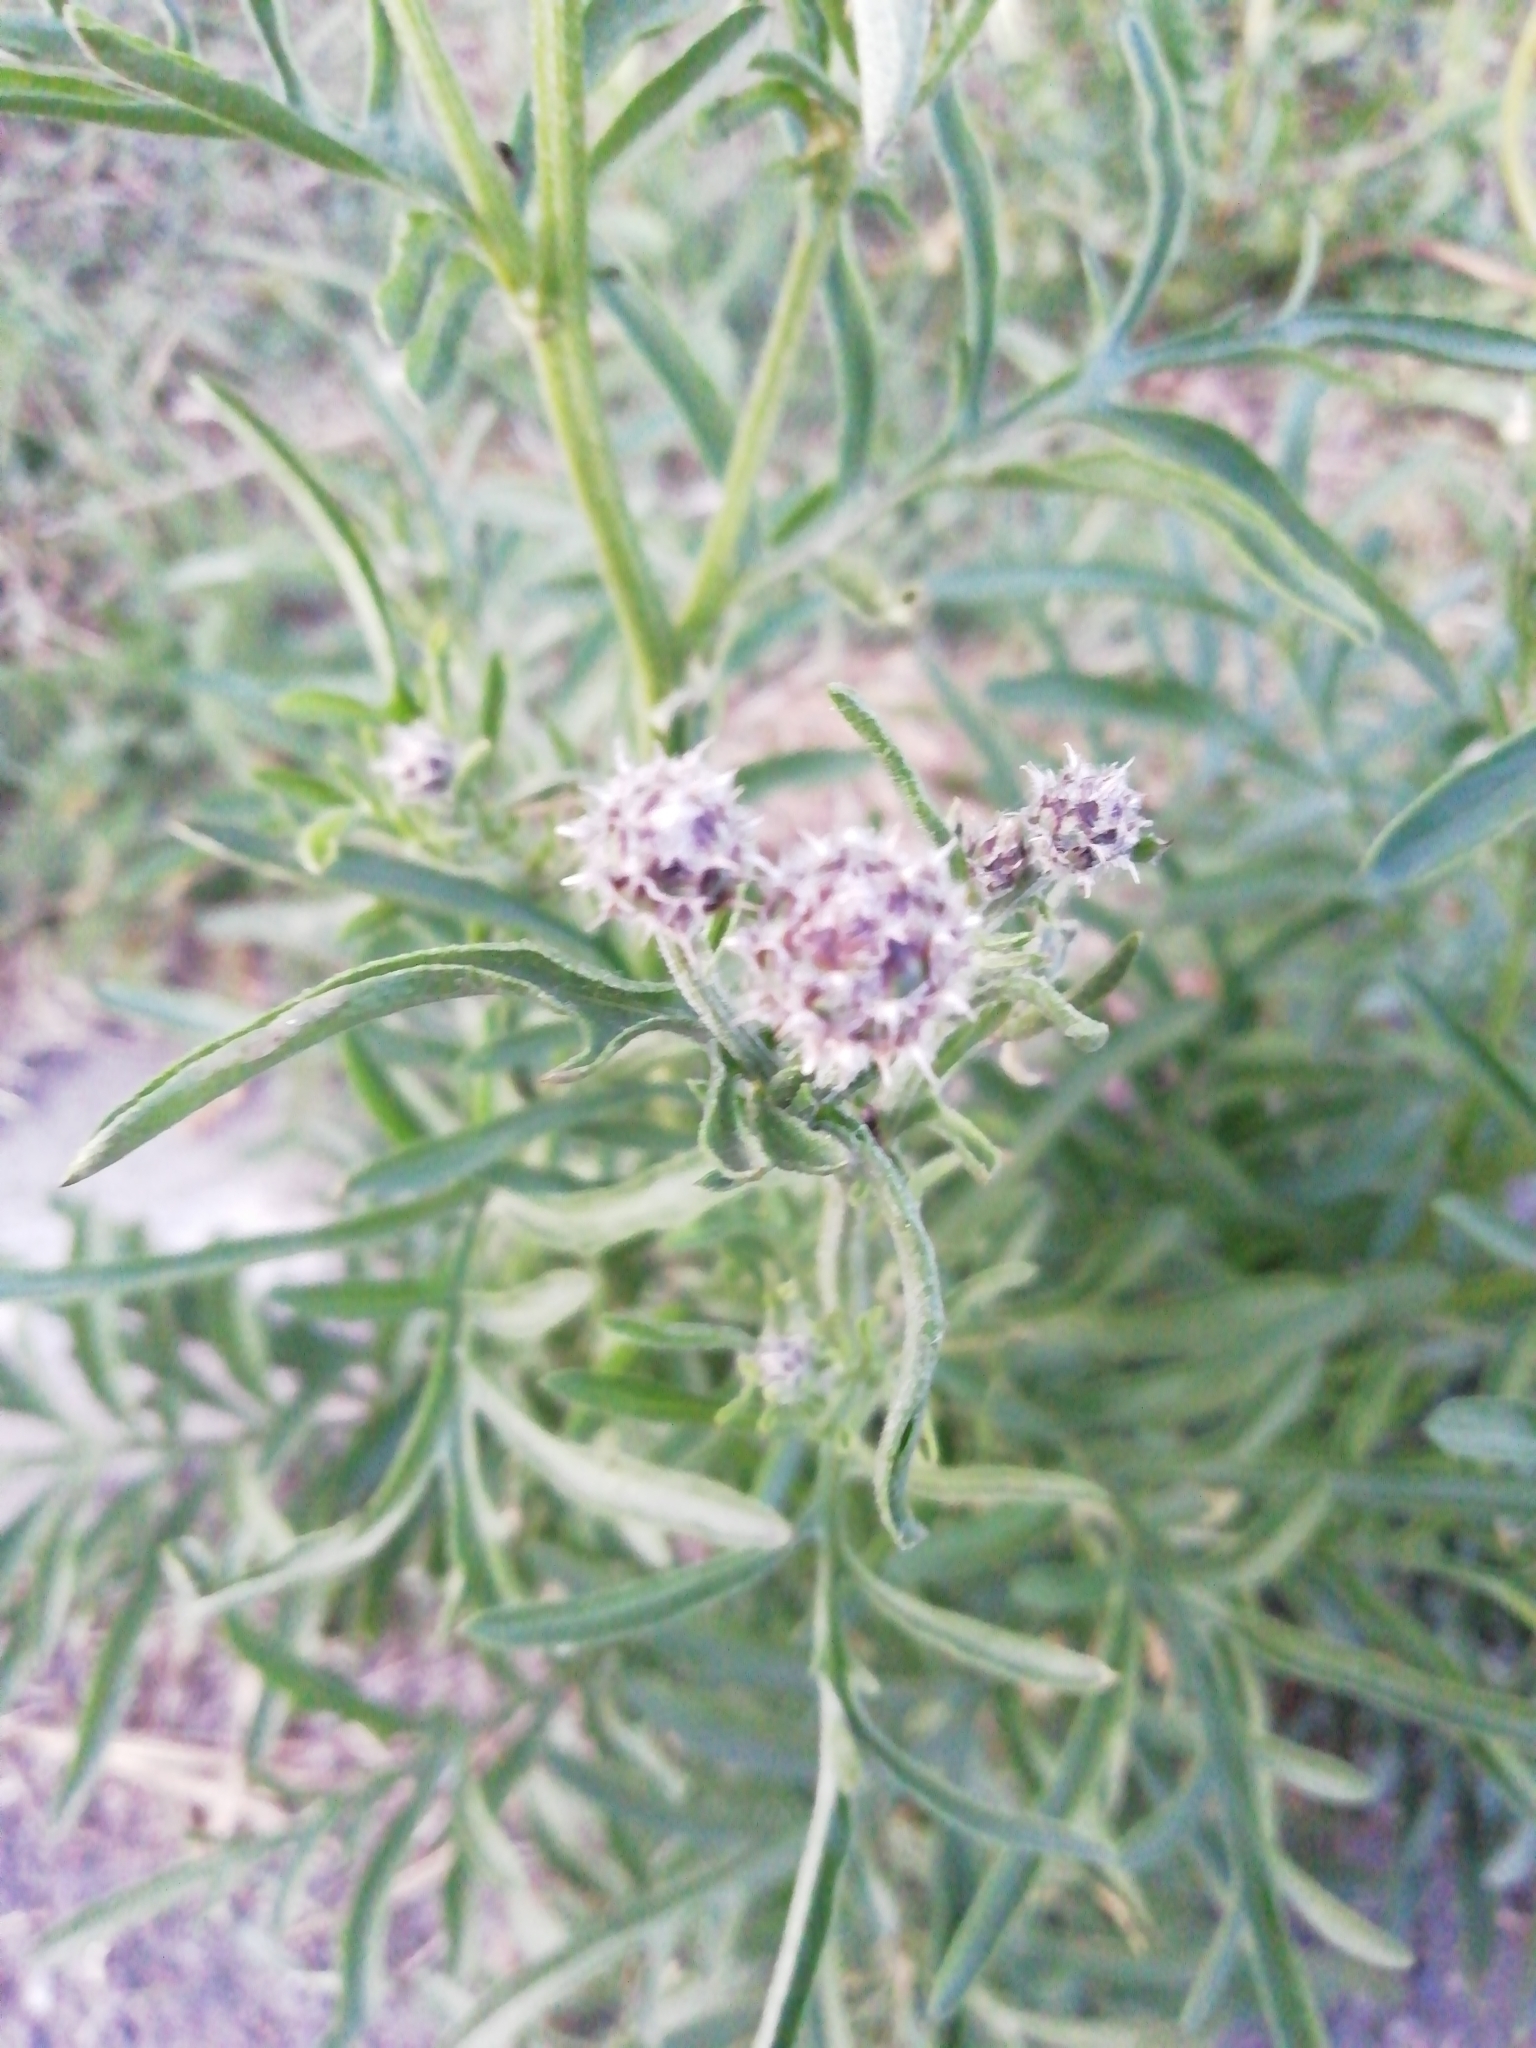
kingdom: Plantae
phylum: Tracheophyta
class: Magnoliopsida
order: Asterales
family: Asteraceae
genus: Centaurea
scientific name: Centaurea scabiosa
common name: Greater knapweed
